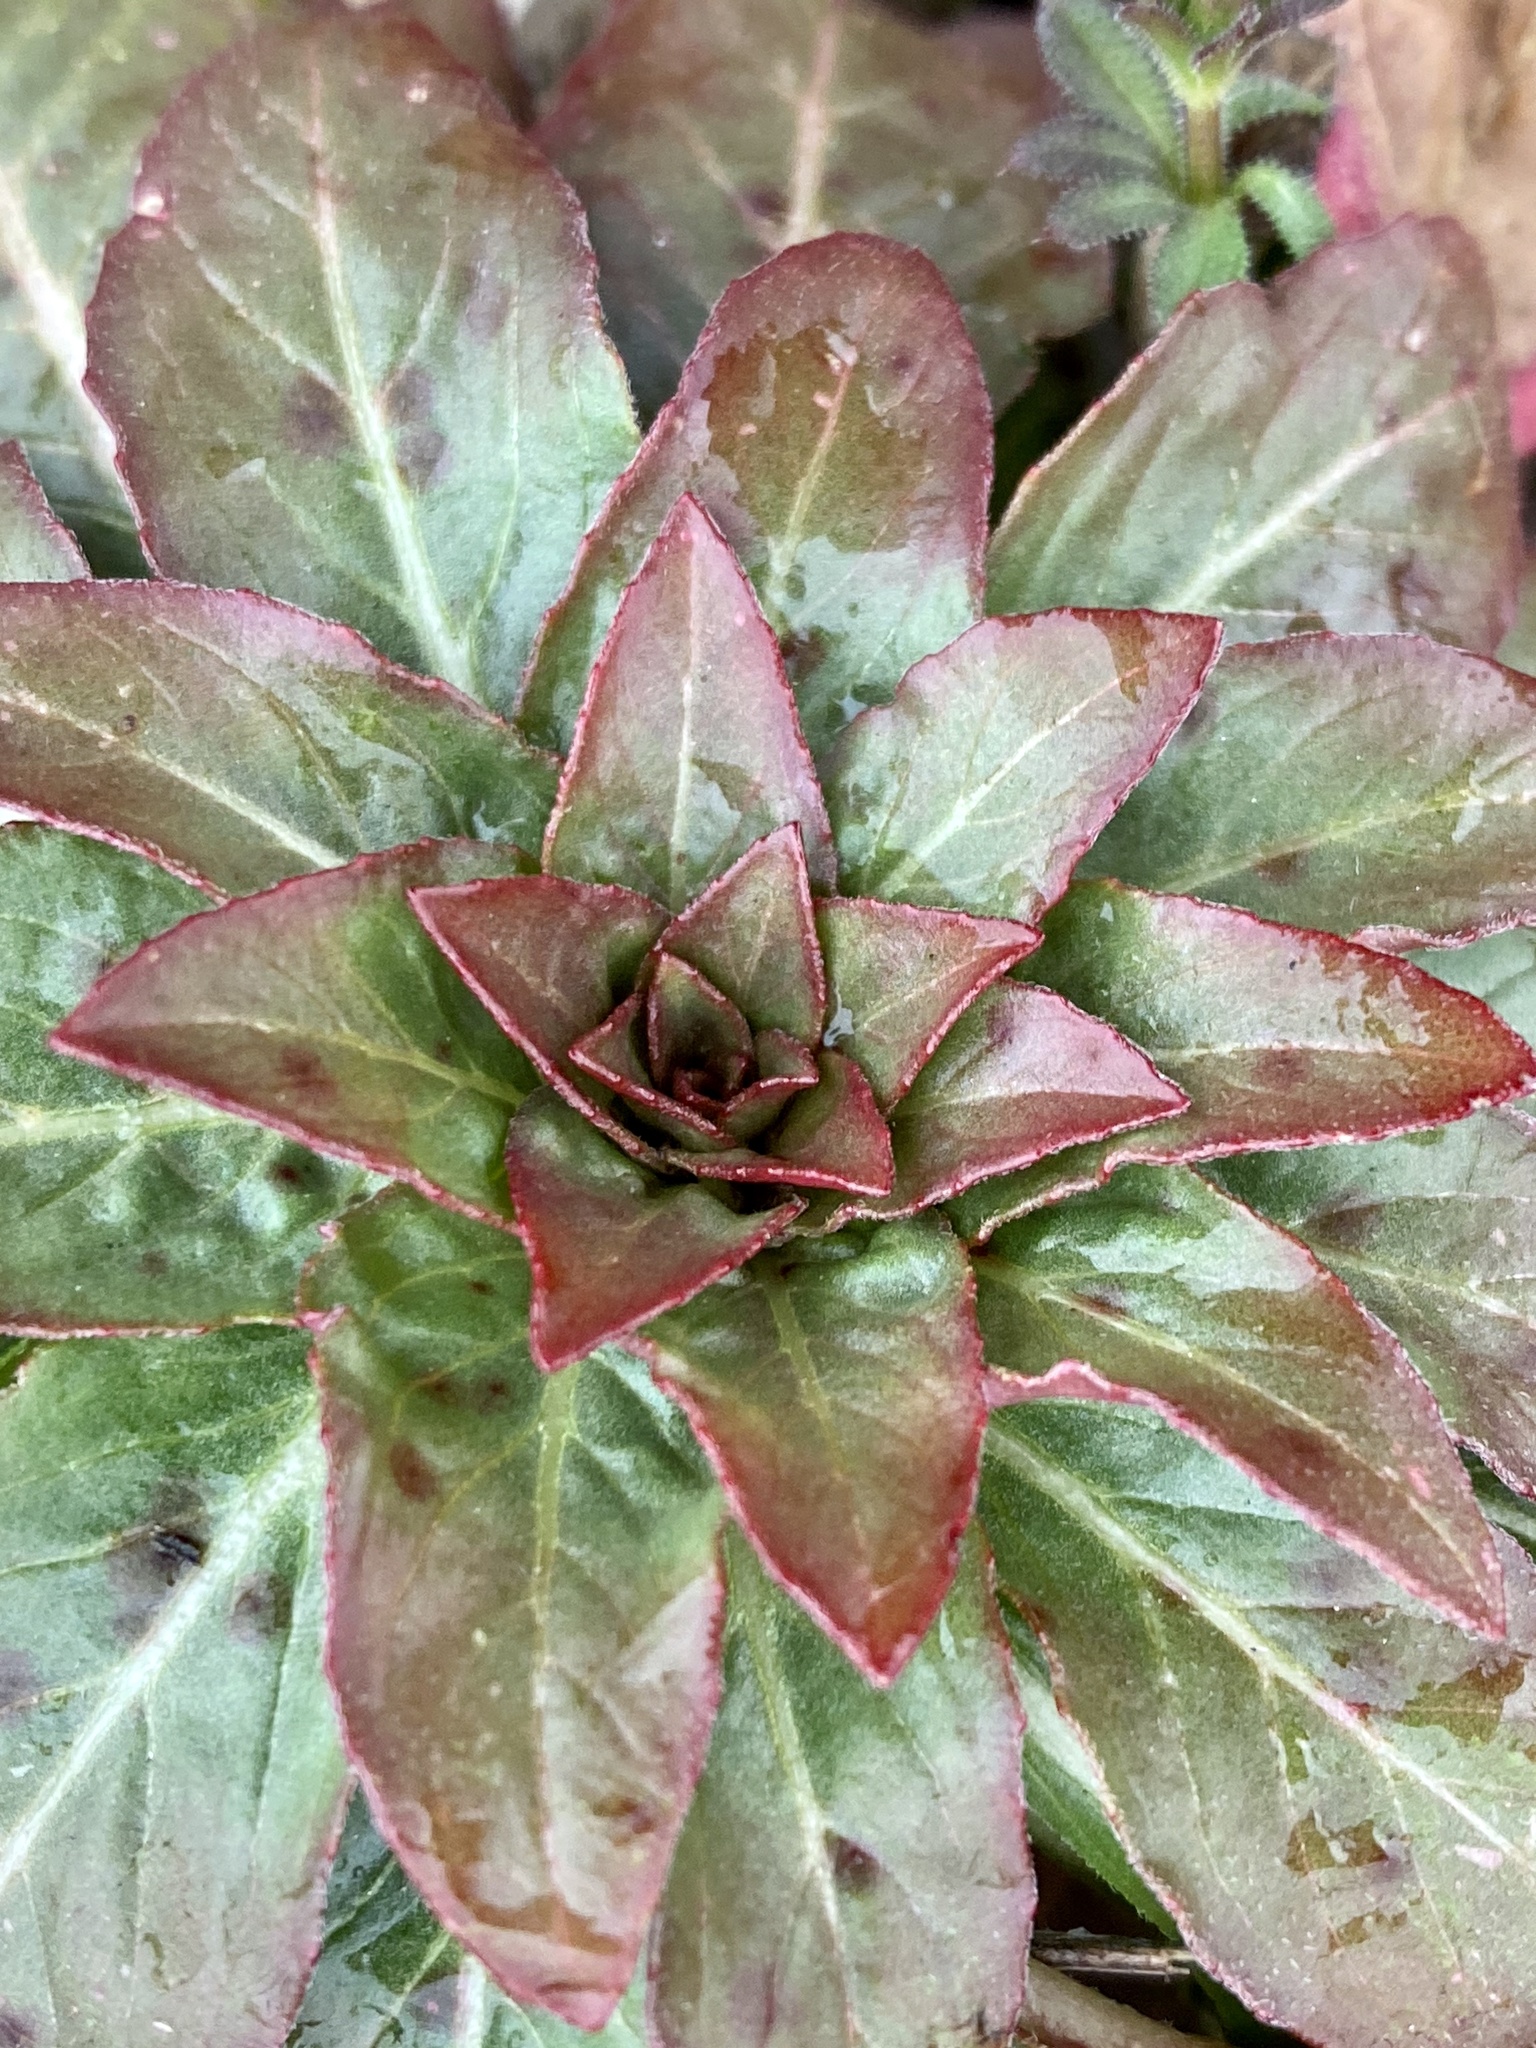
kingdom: Plantae
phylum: Tracheophyta
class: Magnoliopsida
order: Myrtales
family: Onagraceae
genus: Oenothera
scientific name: Oenothera biennis
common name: Common evening-primrose
